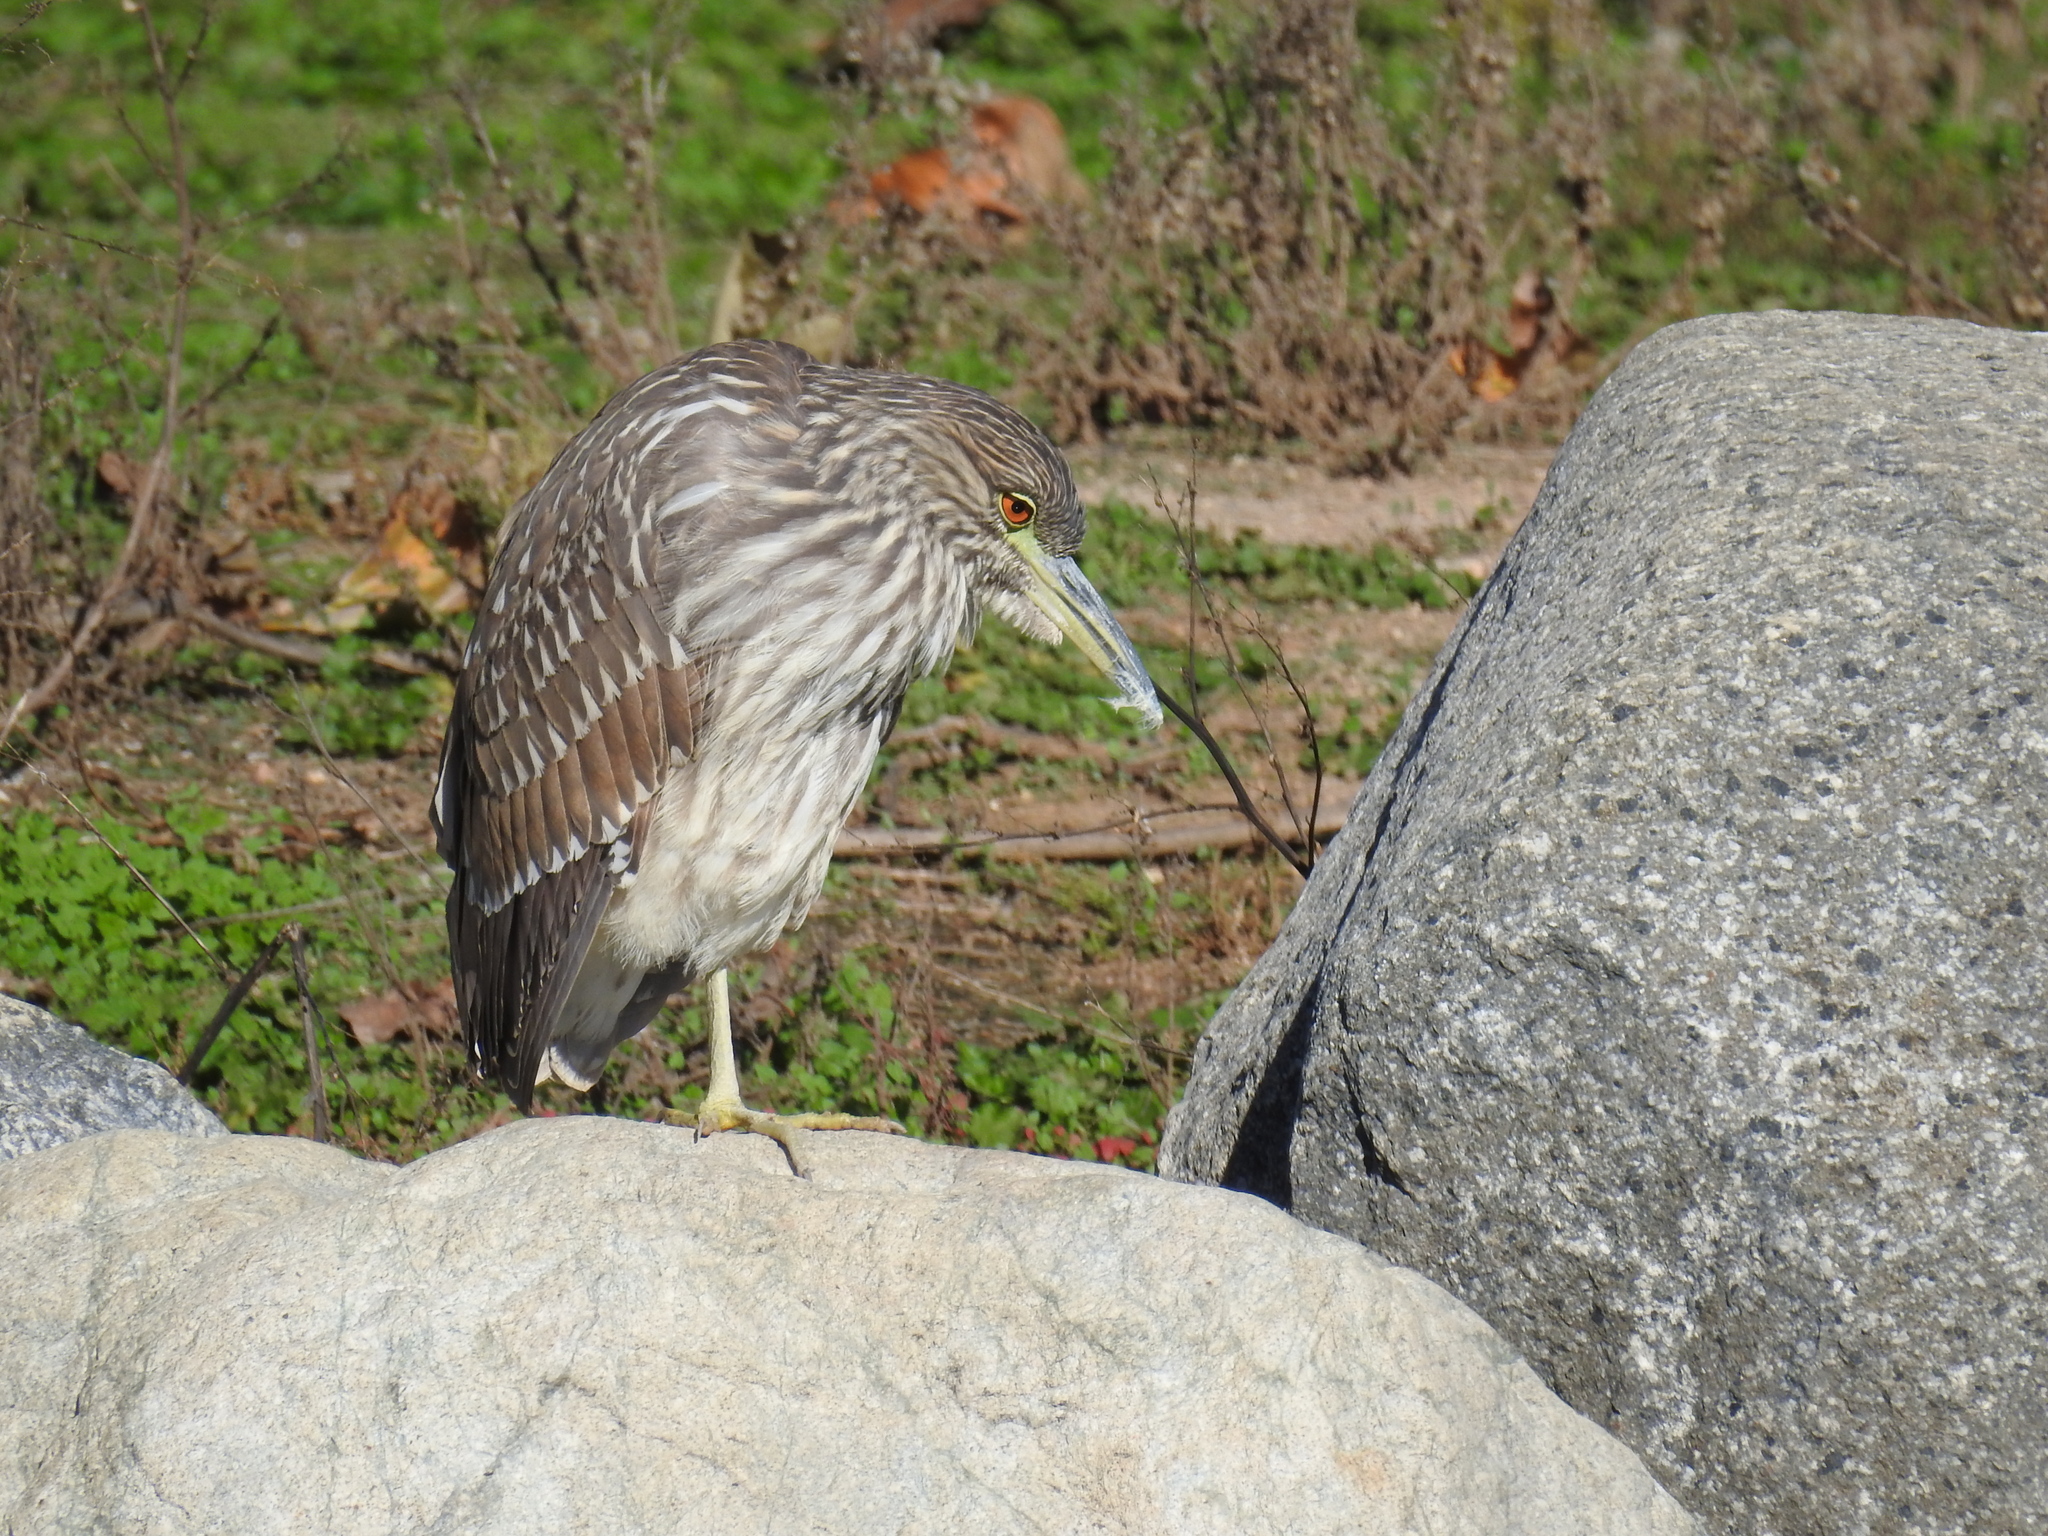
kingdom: Animalia
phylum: Chordata
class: Aves
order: Pelecaniformes
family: Ardeidae
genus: Nycticorax
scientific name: Nycticorax nycticorax
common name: Black-crowned night heron
